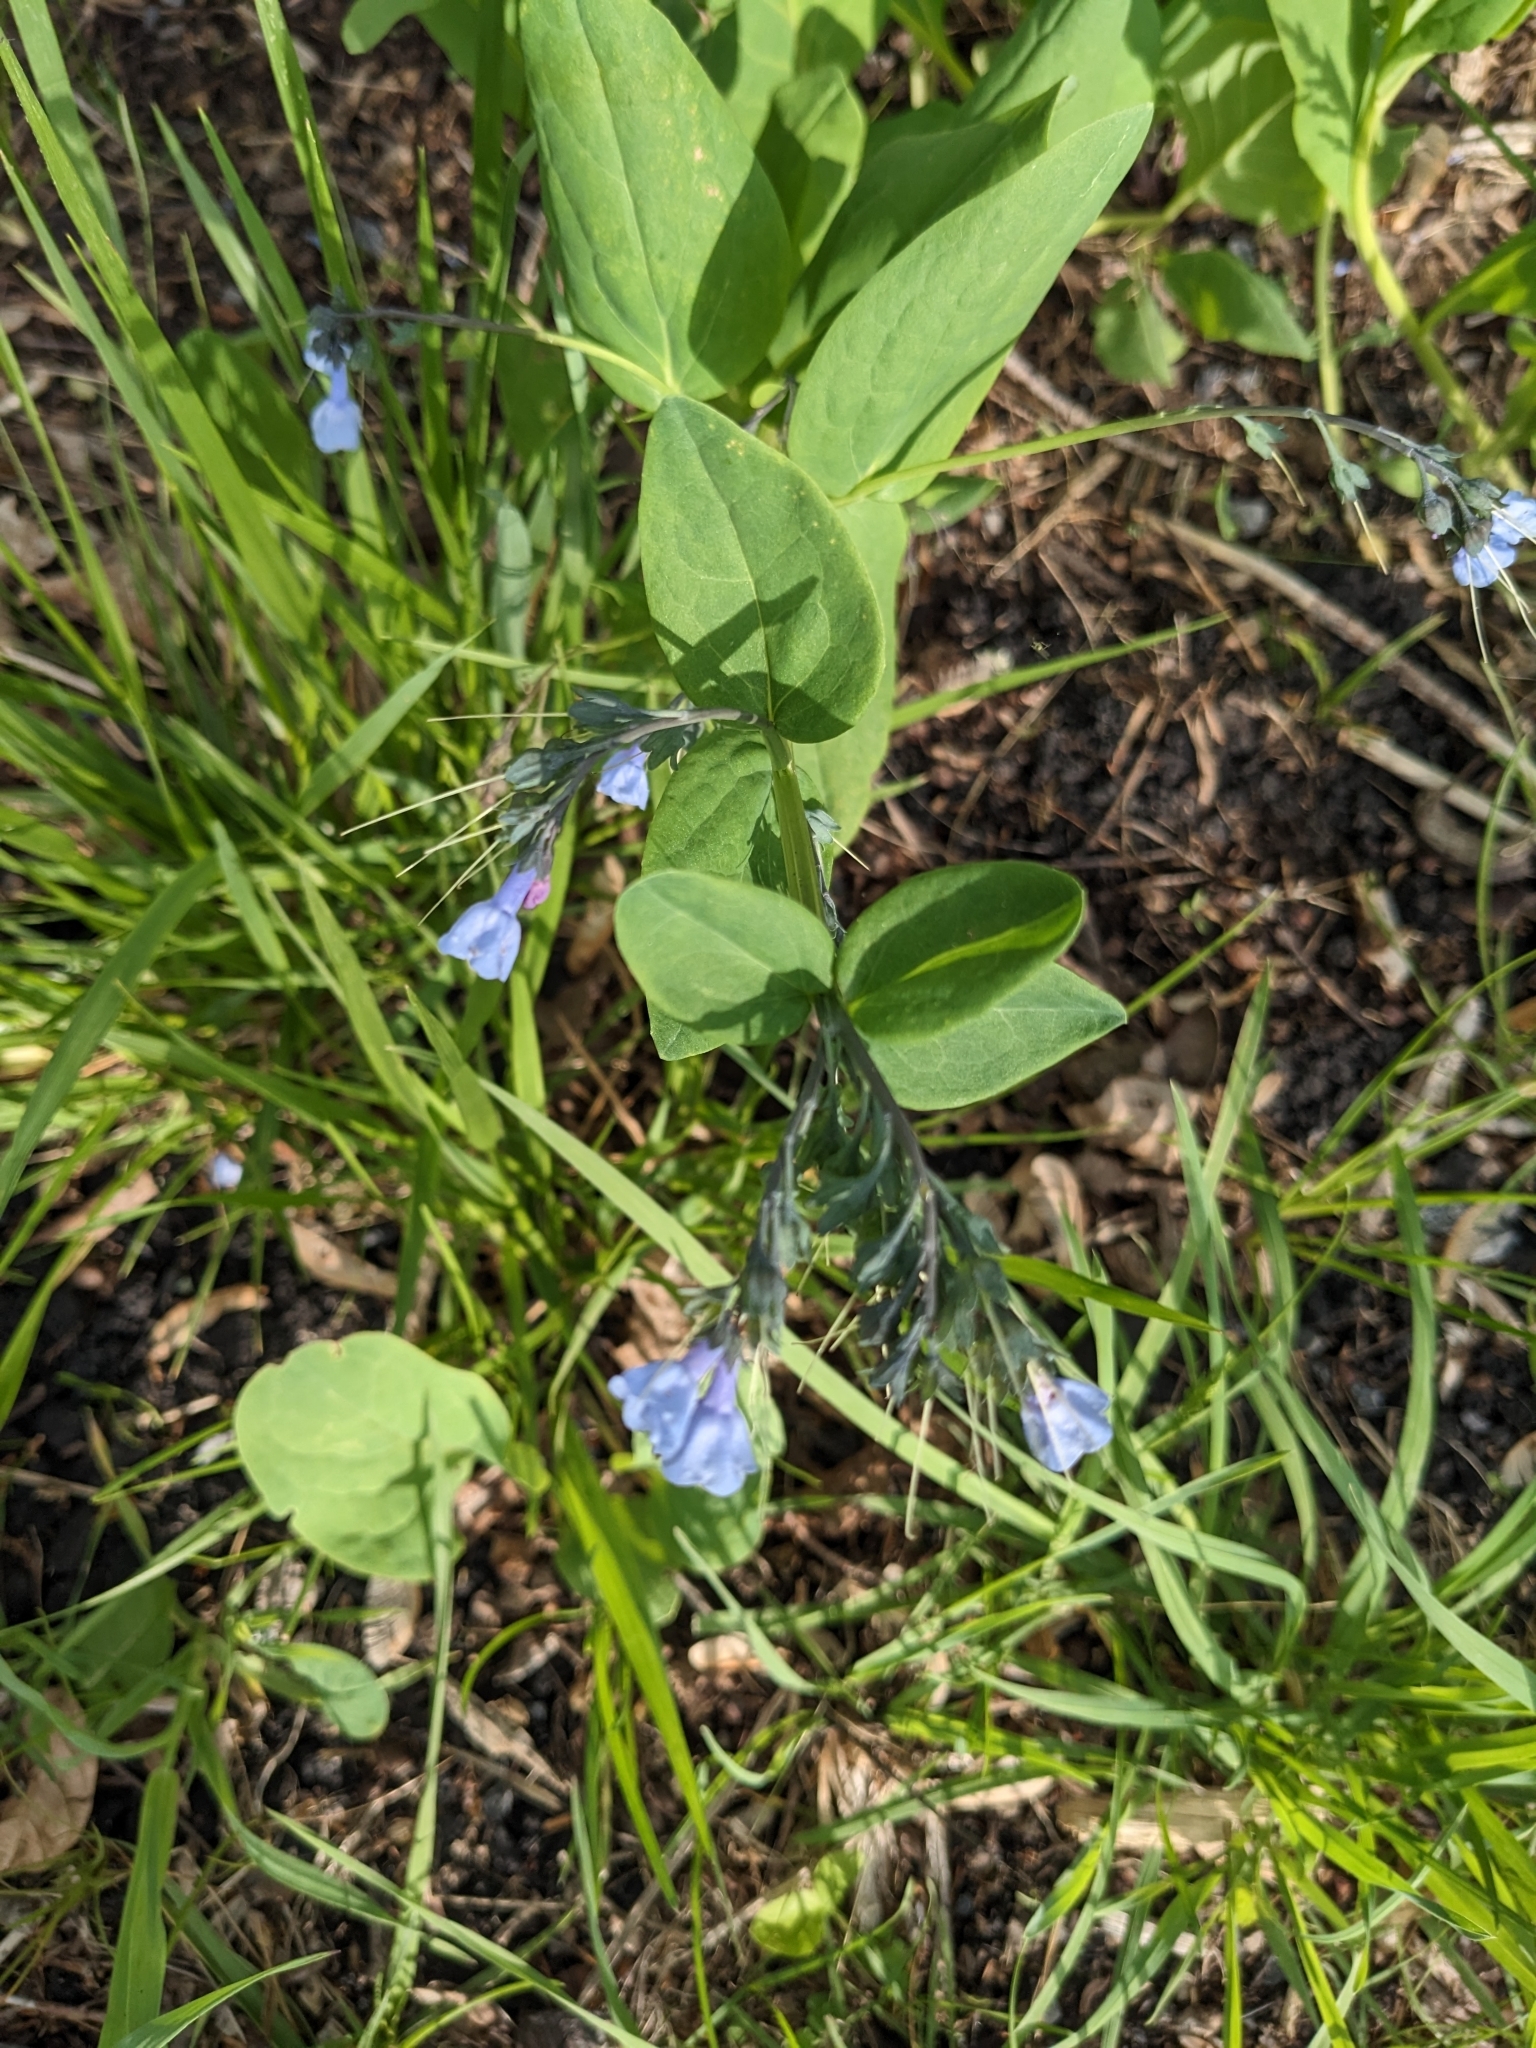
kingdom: Plantae
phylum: Tracheophyta
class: Magnoliopsida
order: Boraginales
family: Boraginaceae
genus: Mertensia
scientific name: Mertensia virginica
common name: Virginia bluebells
